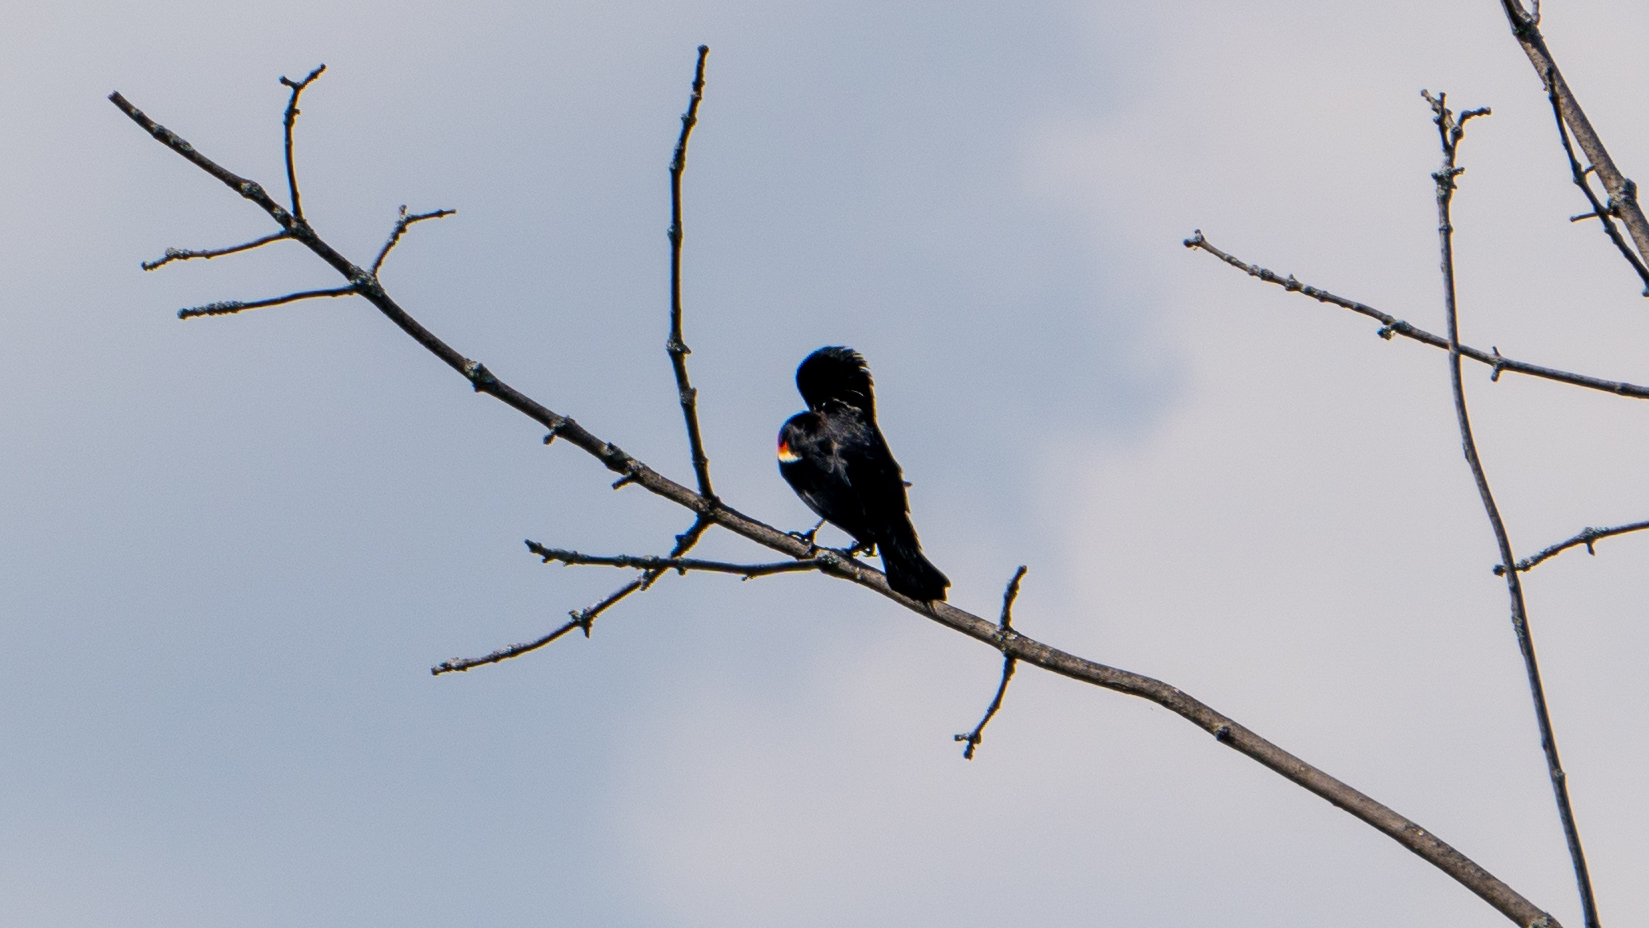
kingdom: Animalia
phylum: Chordata
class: Aves
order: Passeriformes
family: Icteridae
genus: Agelaius
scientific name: Agelaius phoeniceus
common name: Red-winged blackbird
